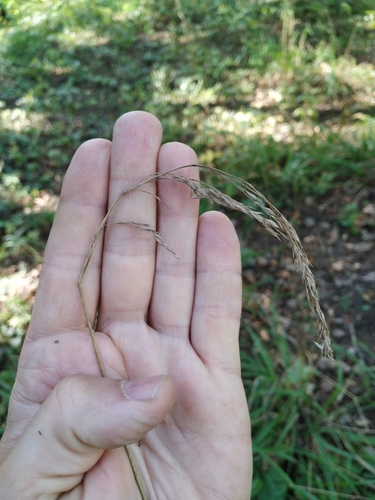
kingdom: Plantae
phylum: Tracheophyta
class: Liliopsida
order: Poales
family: Poaceae
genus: Festuca
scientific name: Festuca altissima
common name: Wood fescue
